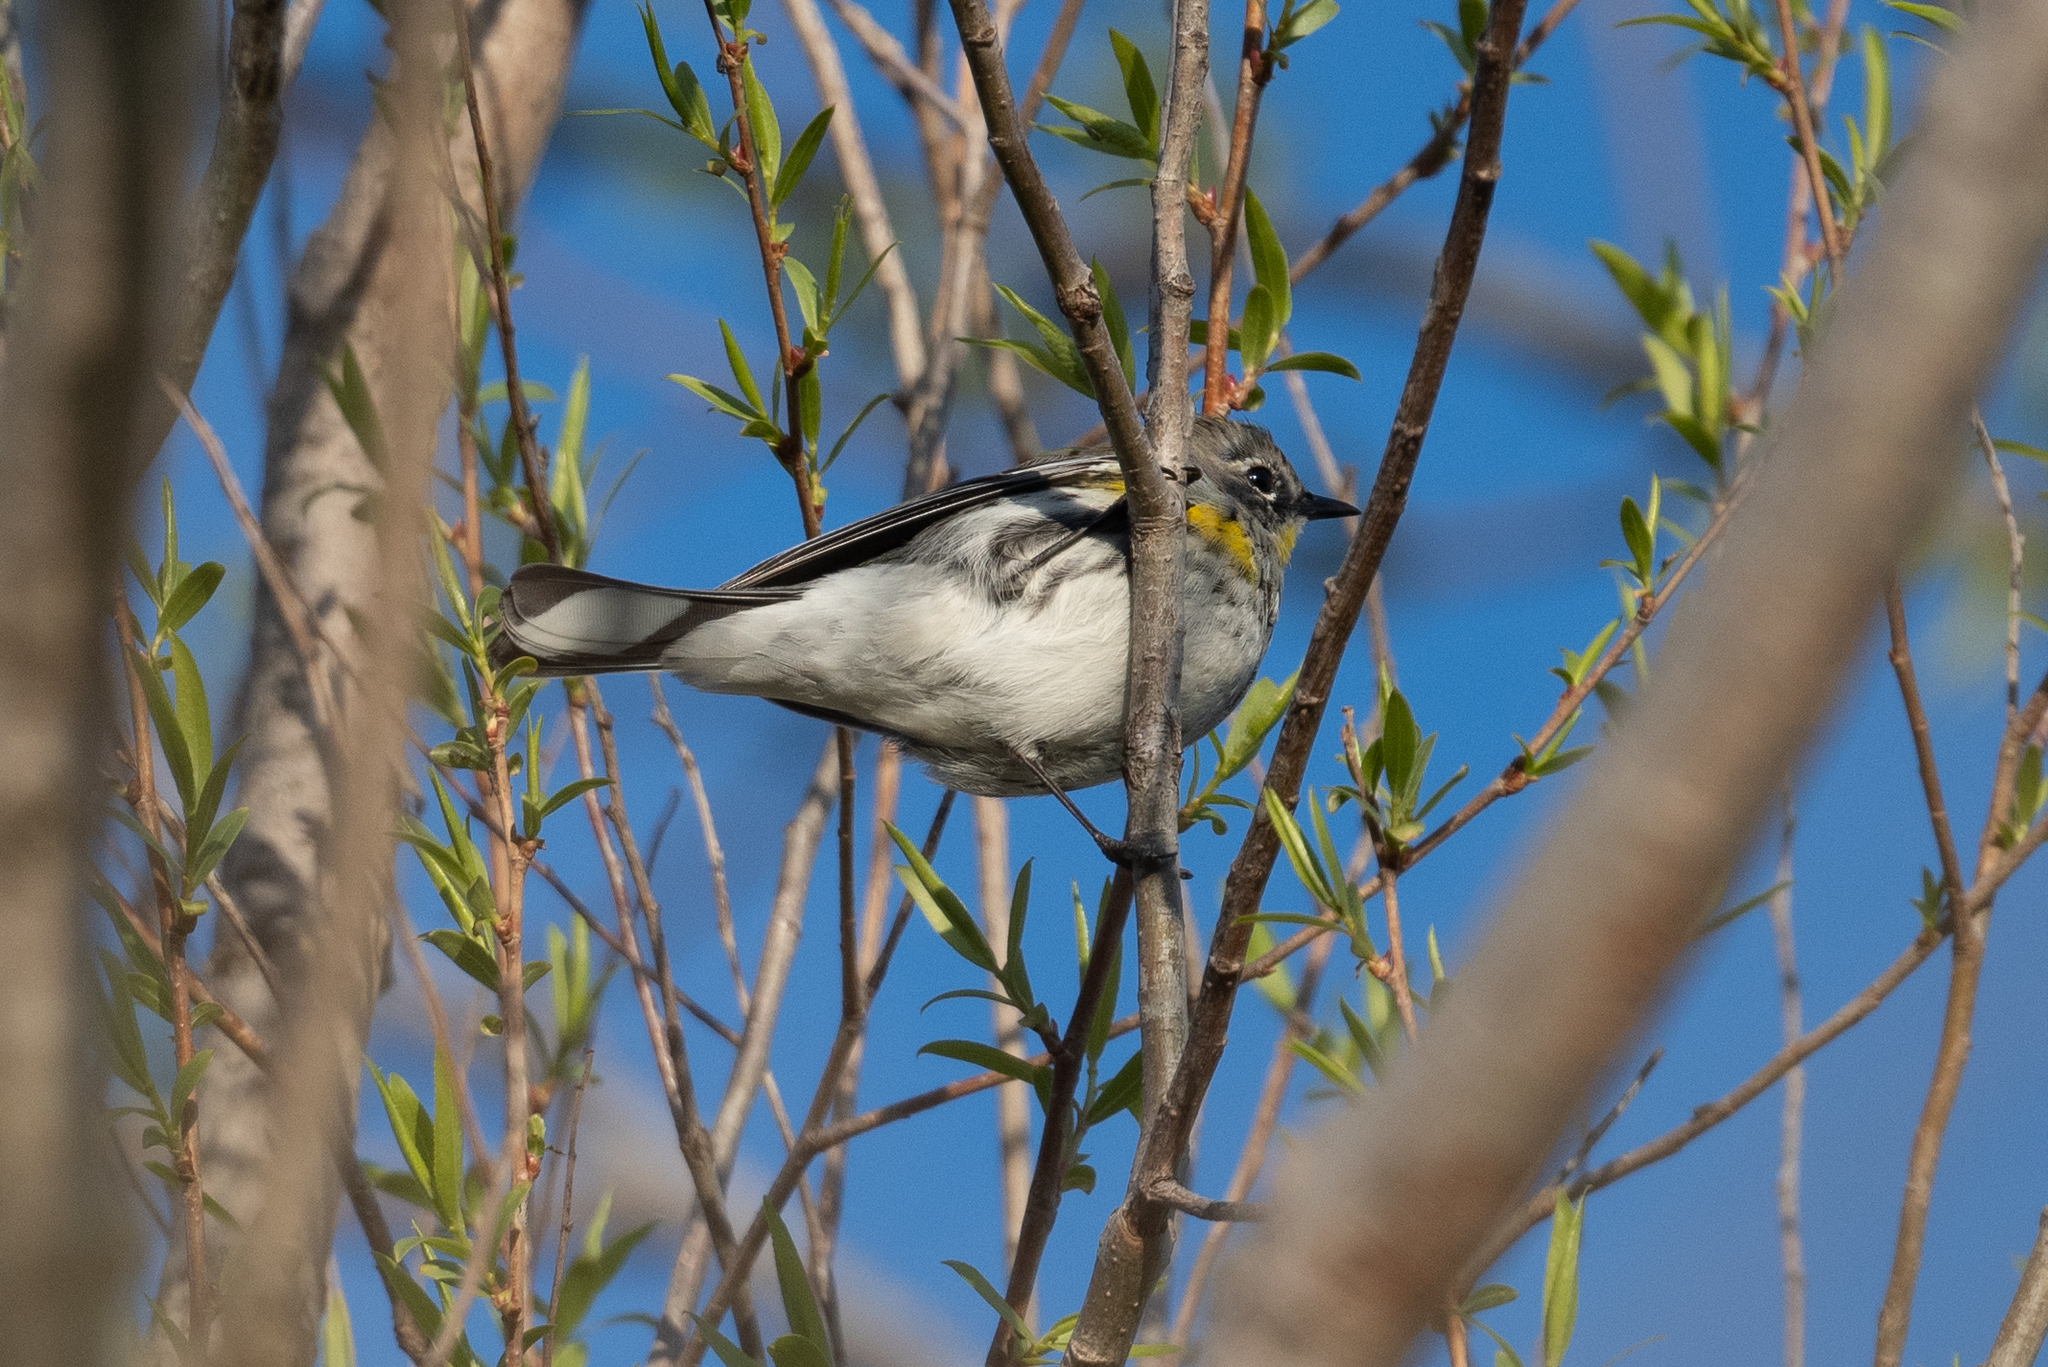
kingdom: Animalia
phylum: Chordata
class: Aves
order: Passeriformes
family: Parulidae
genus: Setophaga
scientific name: Setophaga coronata
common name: Myrtle warbler
